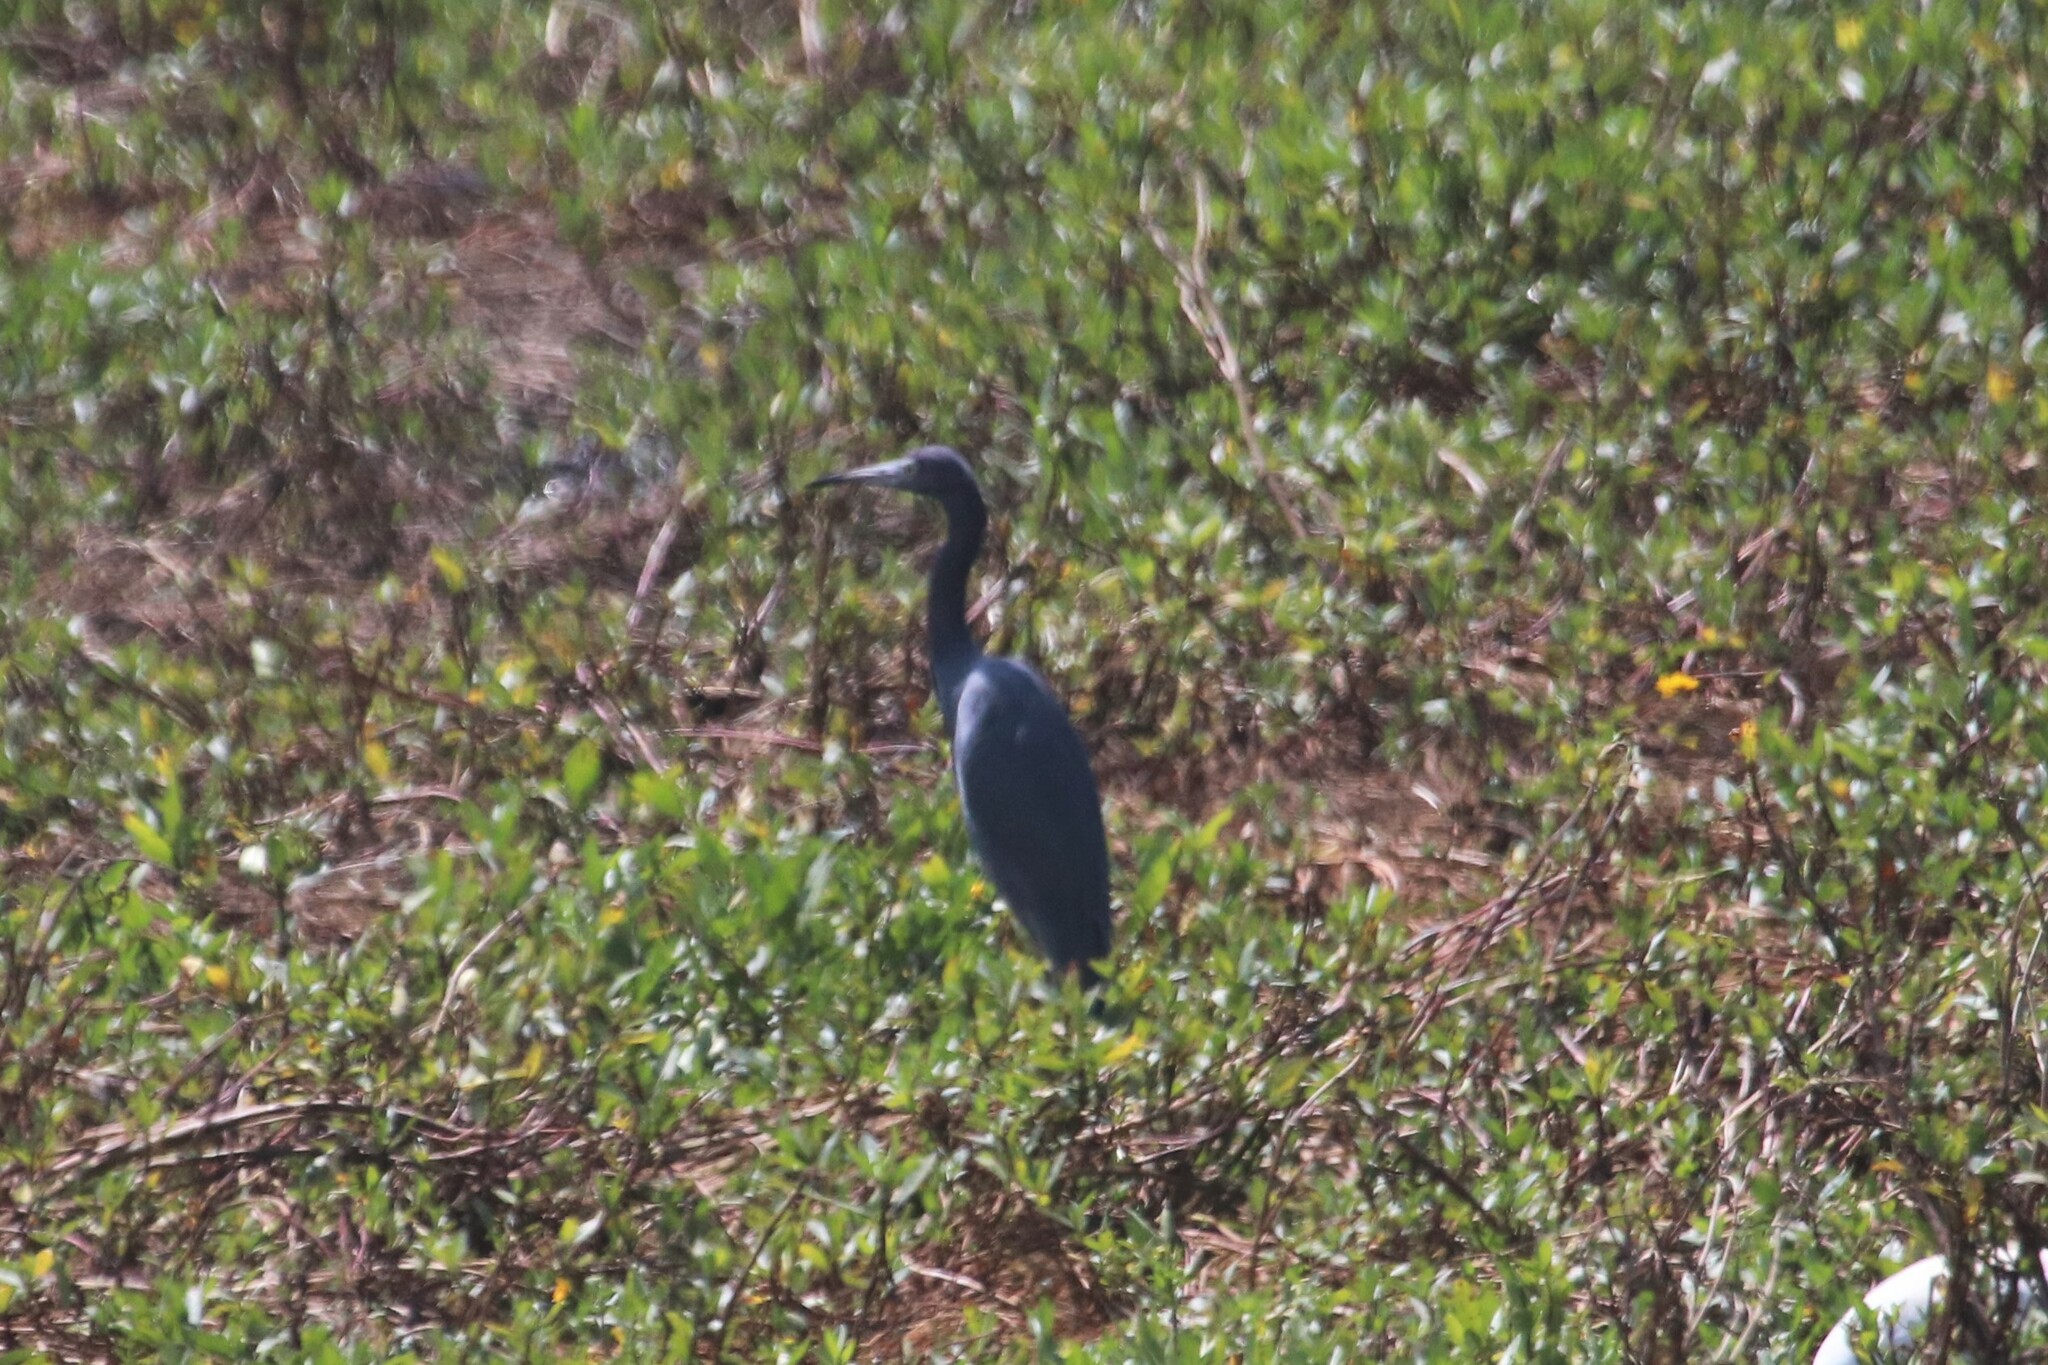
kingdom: Animalia
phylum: Chordata
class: Aves
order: Pelecaniformes
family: Ardeidae
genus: Egretta
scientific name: Egretta caerulea
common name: Little blue heron
